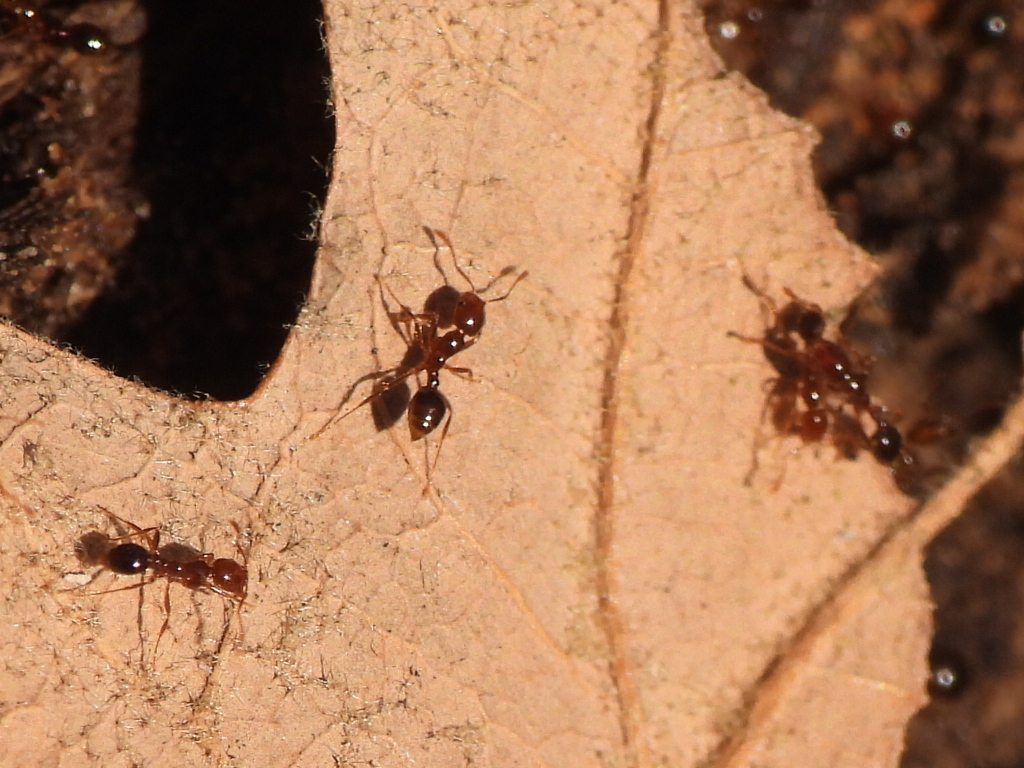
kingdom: Animalia
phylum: Arthropoda
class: Insecta
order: Hymenoptera
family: Formicidae
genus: Solenopsis
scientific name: Solenopsis invicta
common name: Red imported fire ant
